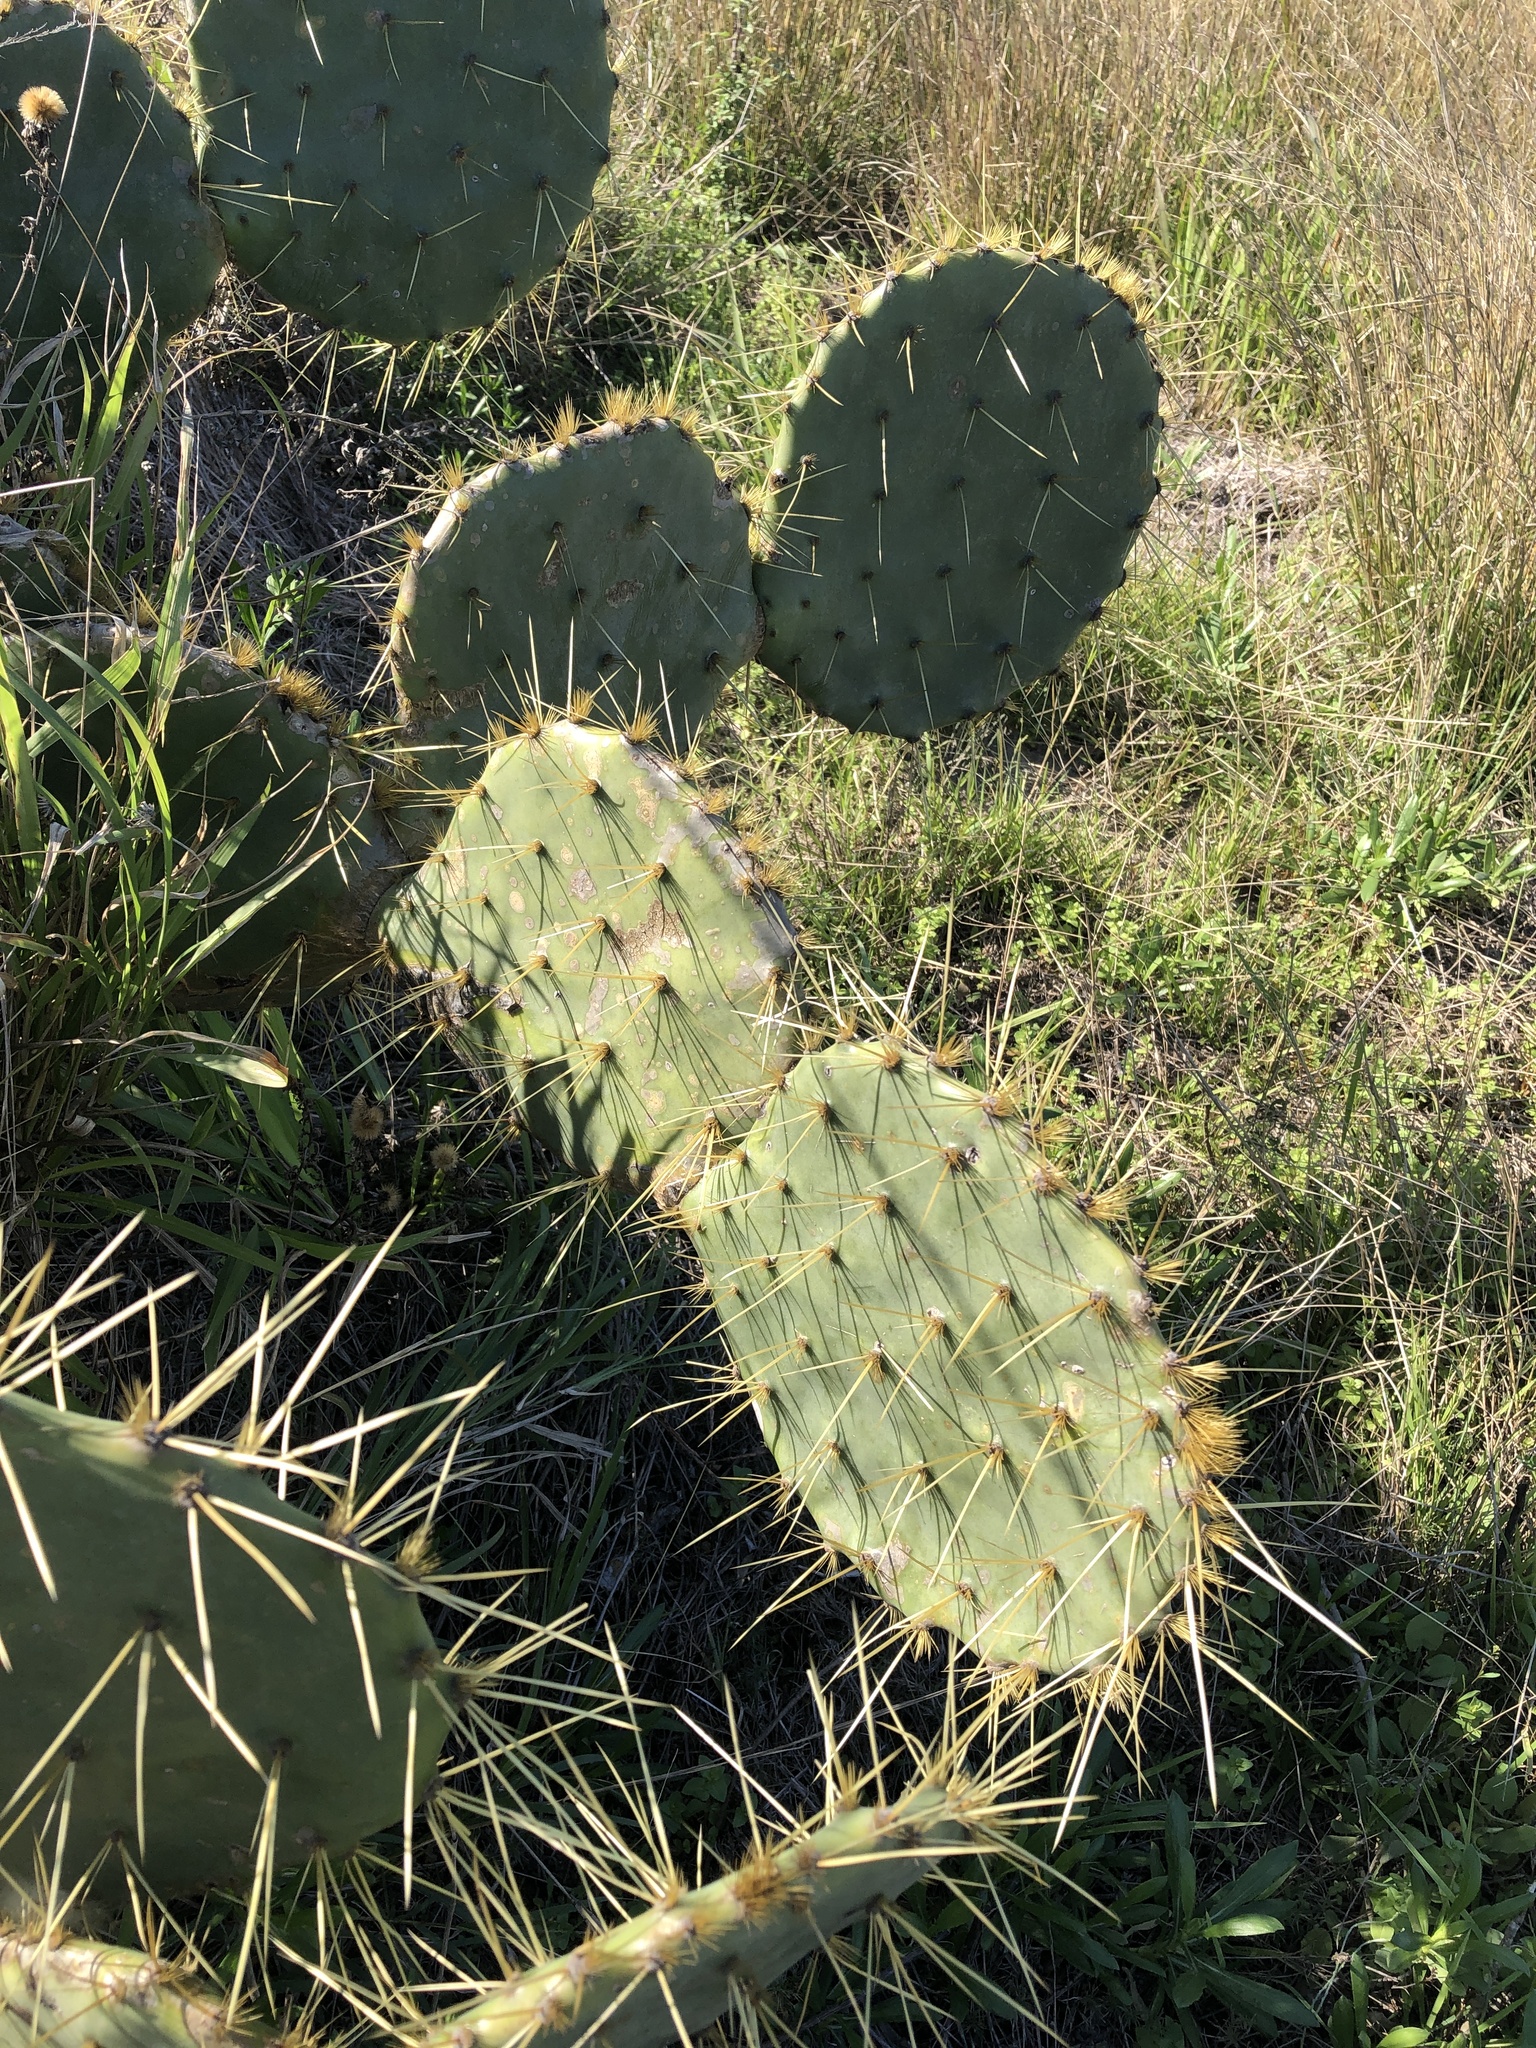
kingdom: Plantae
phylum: Tracheophyta
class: Magnoliopsida
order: Caryophyllales
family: Cactaceae
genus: Opuntia
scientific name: Opuntia engelmannii
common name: Cactus-apple
